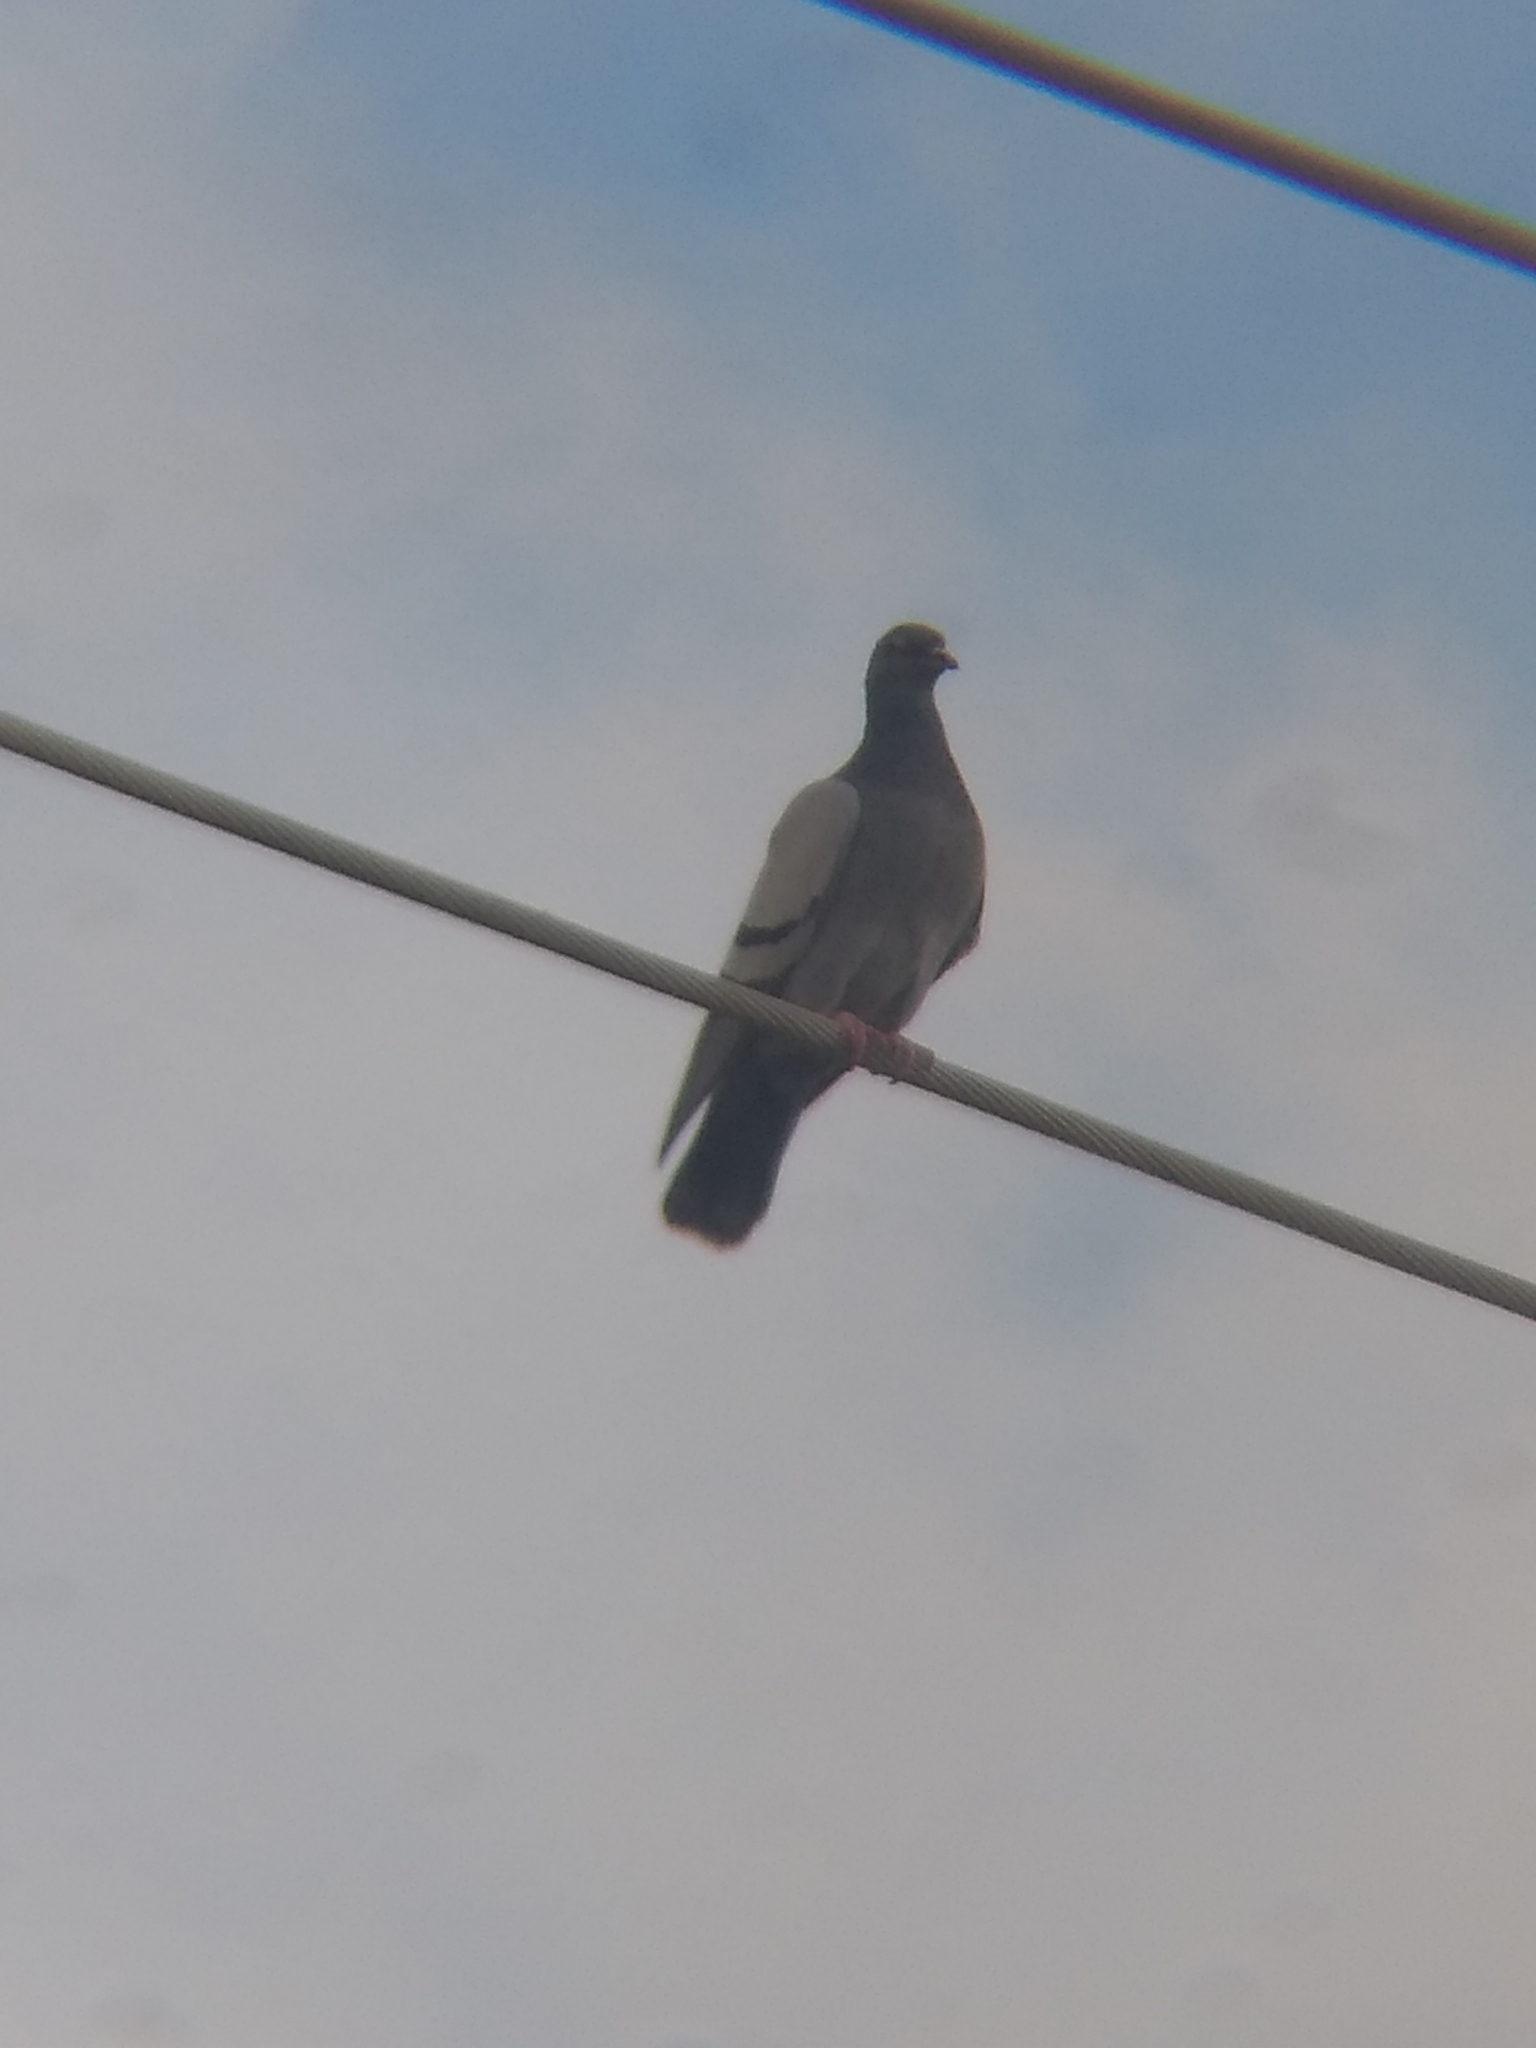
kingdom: Animalia
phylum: Chordata
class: Aves
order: Columbiformes
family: Columbidae
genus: Columba
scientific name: Columba livia
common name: Rock pigeon
